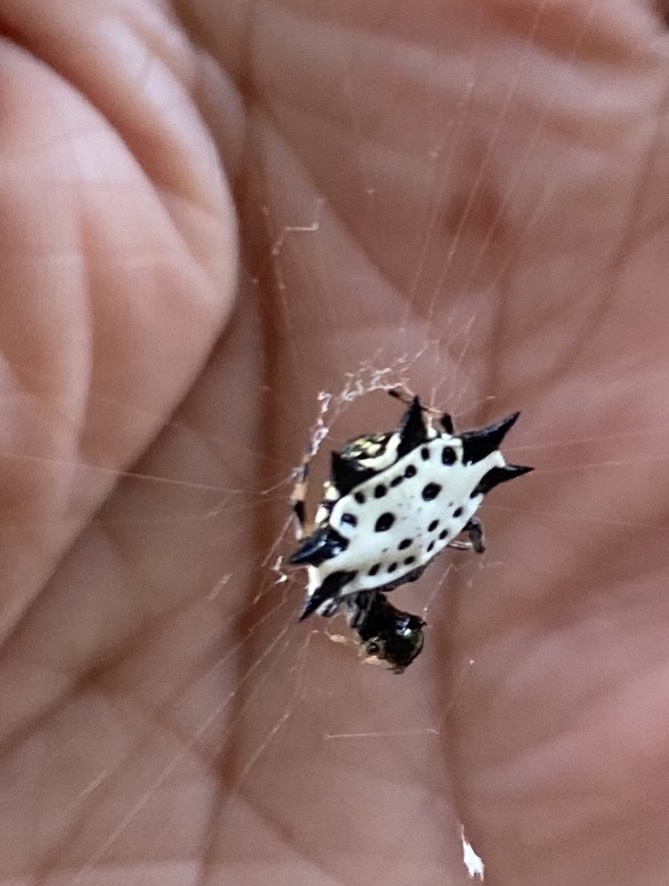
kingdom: Animalia
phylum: Arthropoda
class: Arachnida
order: Araneae
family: Araneidae
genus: Gasteracantha
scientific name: Gasteracantha cancriformis
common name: Orb weavers
